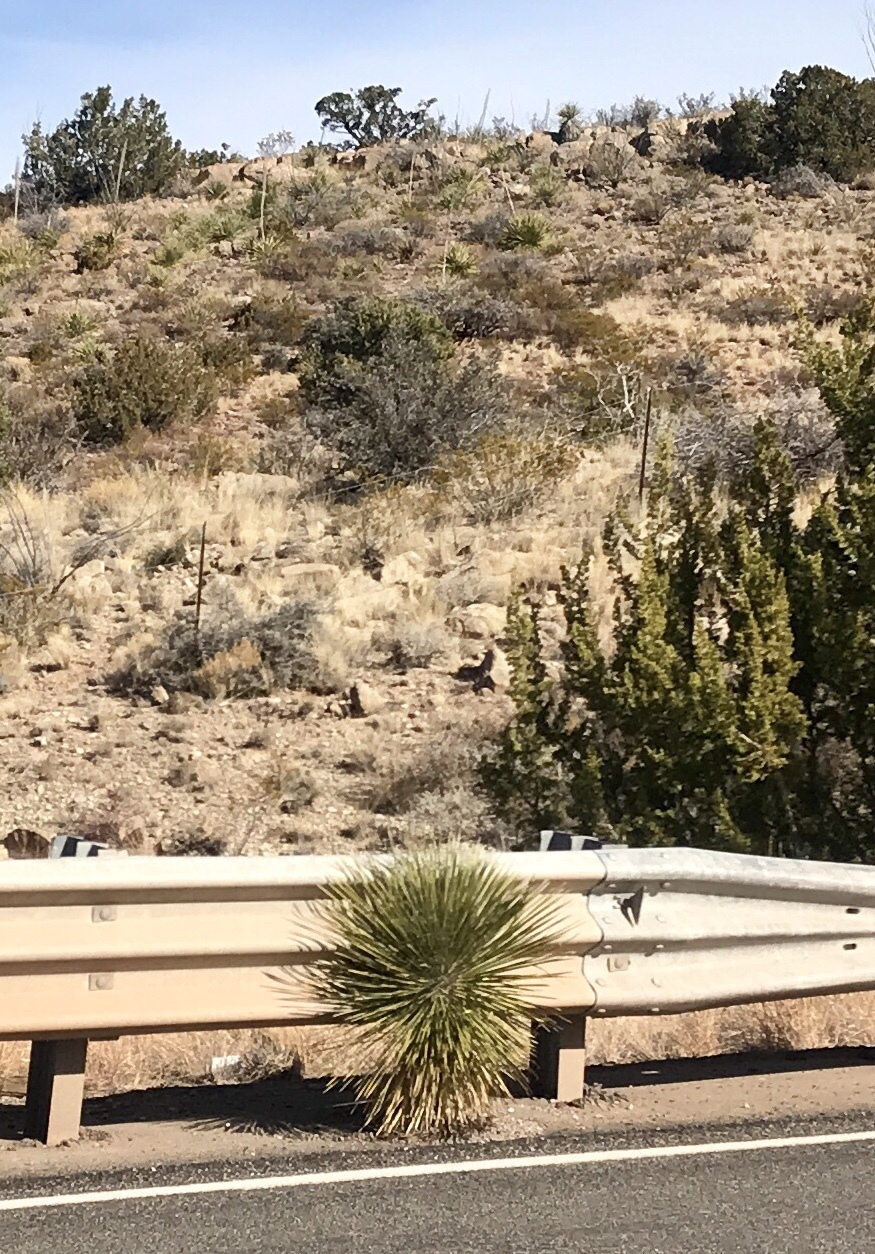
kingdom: Plantae
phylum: Tracheophyta
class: Liliopsida
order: Asparagales
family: Asparagaceae
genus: Yucca
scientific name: Yucca elata
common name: Palmella
